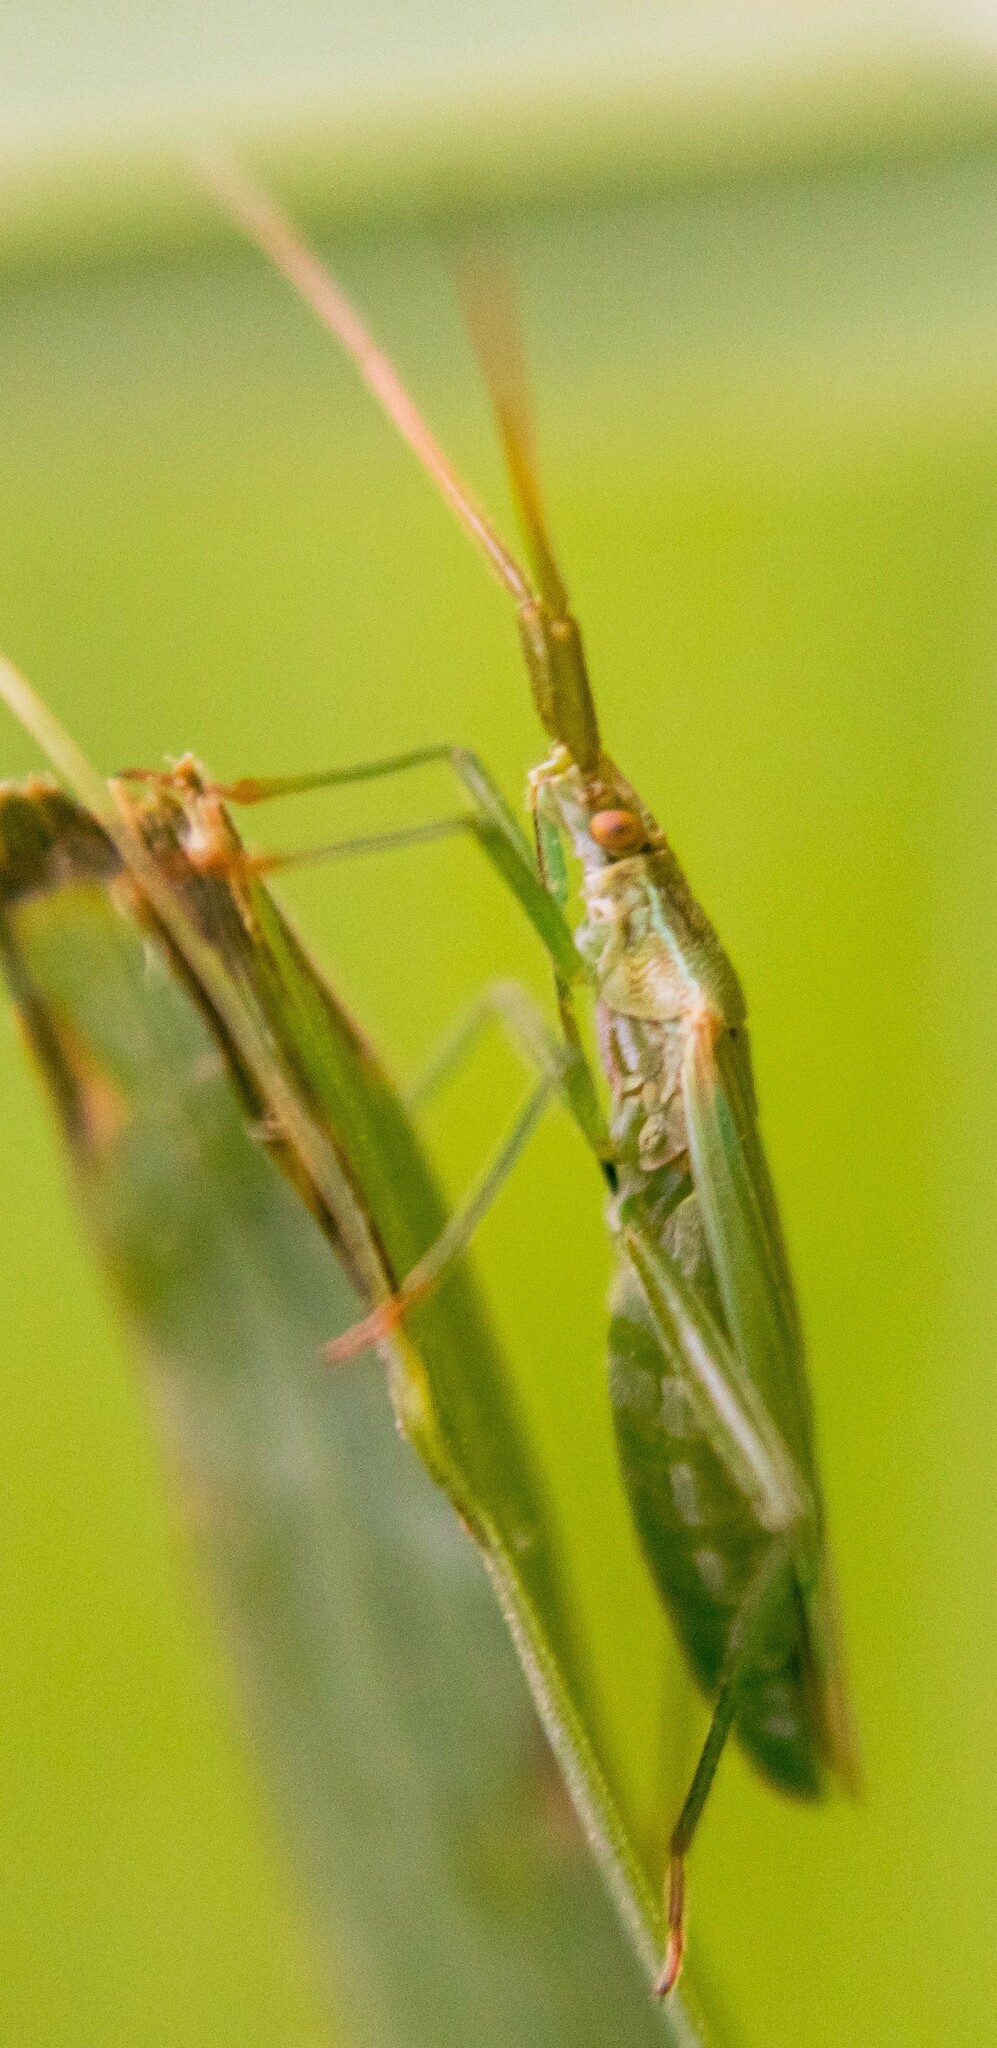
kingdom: Animalia
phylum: Arthropoda
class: Insecta
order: Hemiptera
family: Miridae
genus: Stenodema
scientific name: Stenodema laevigata
